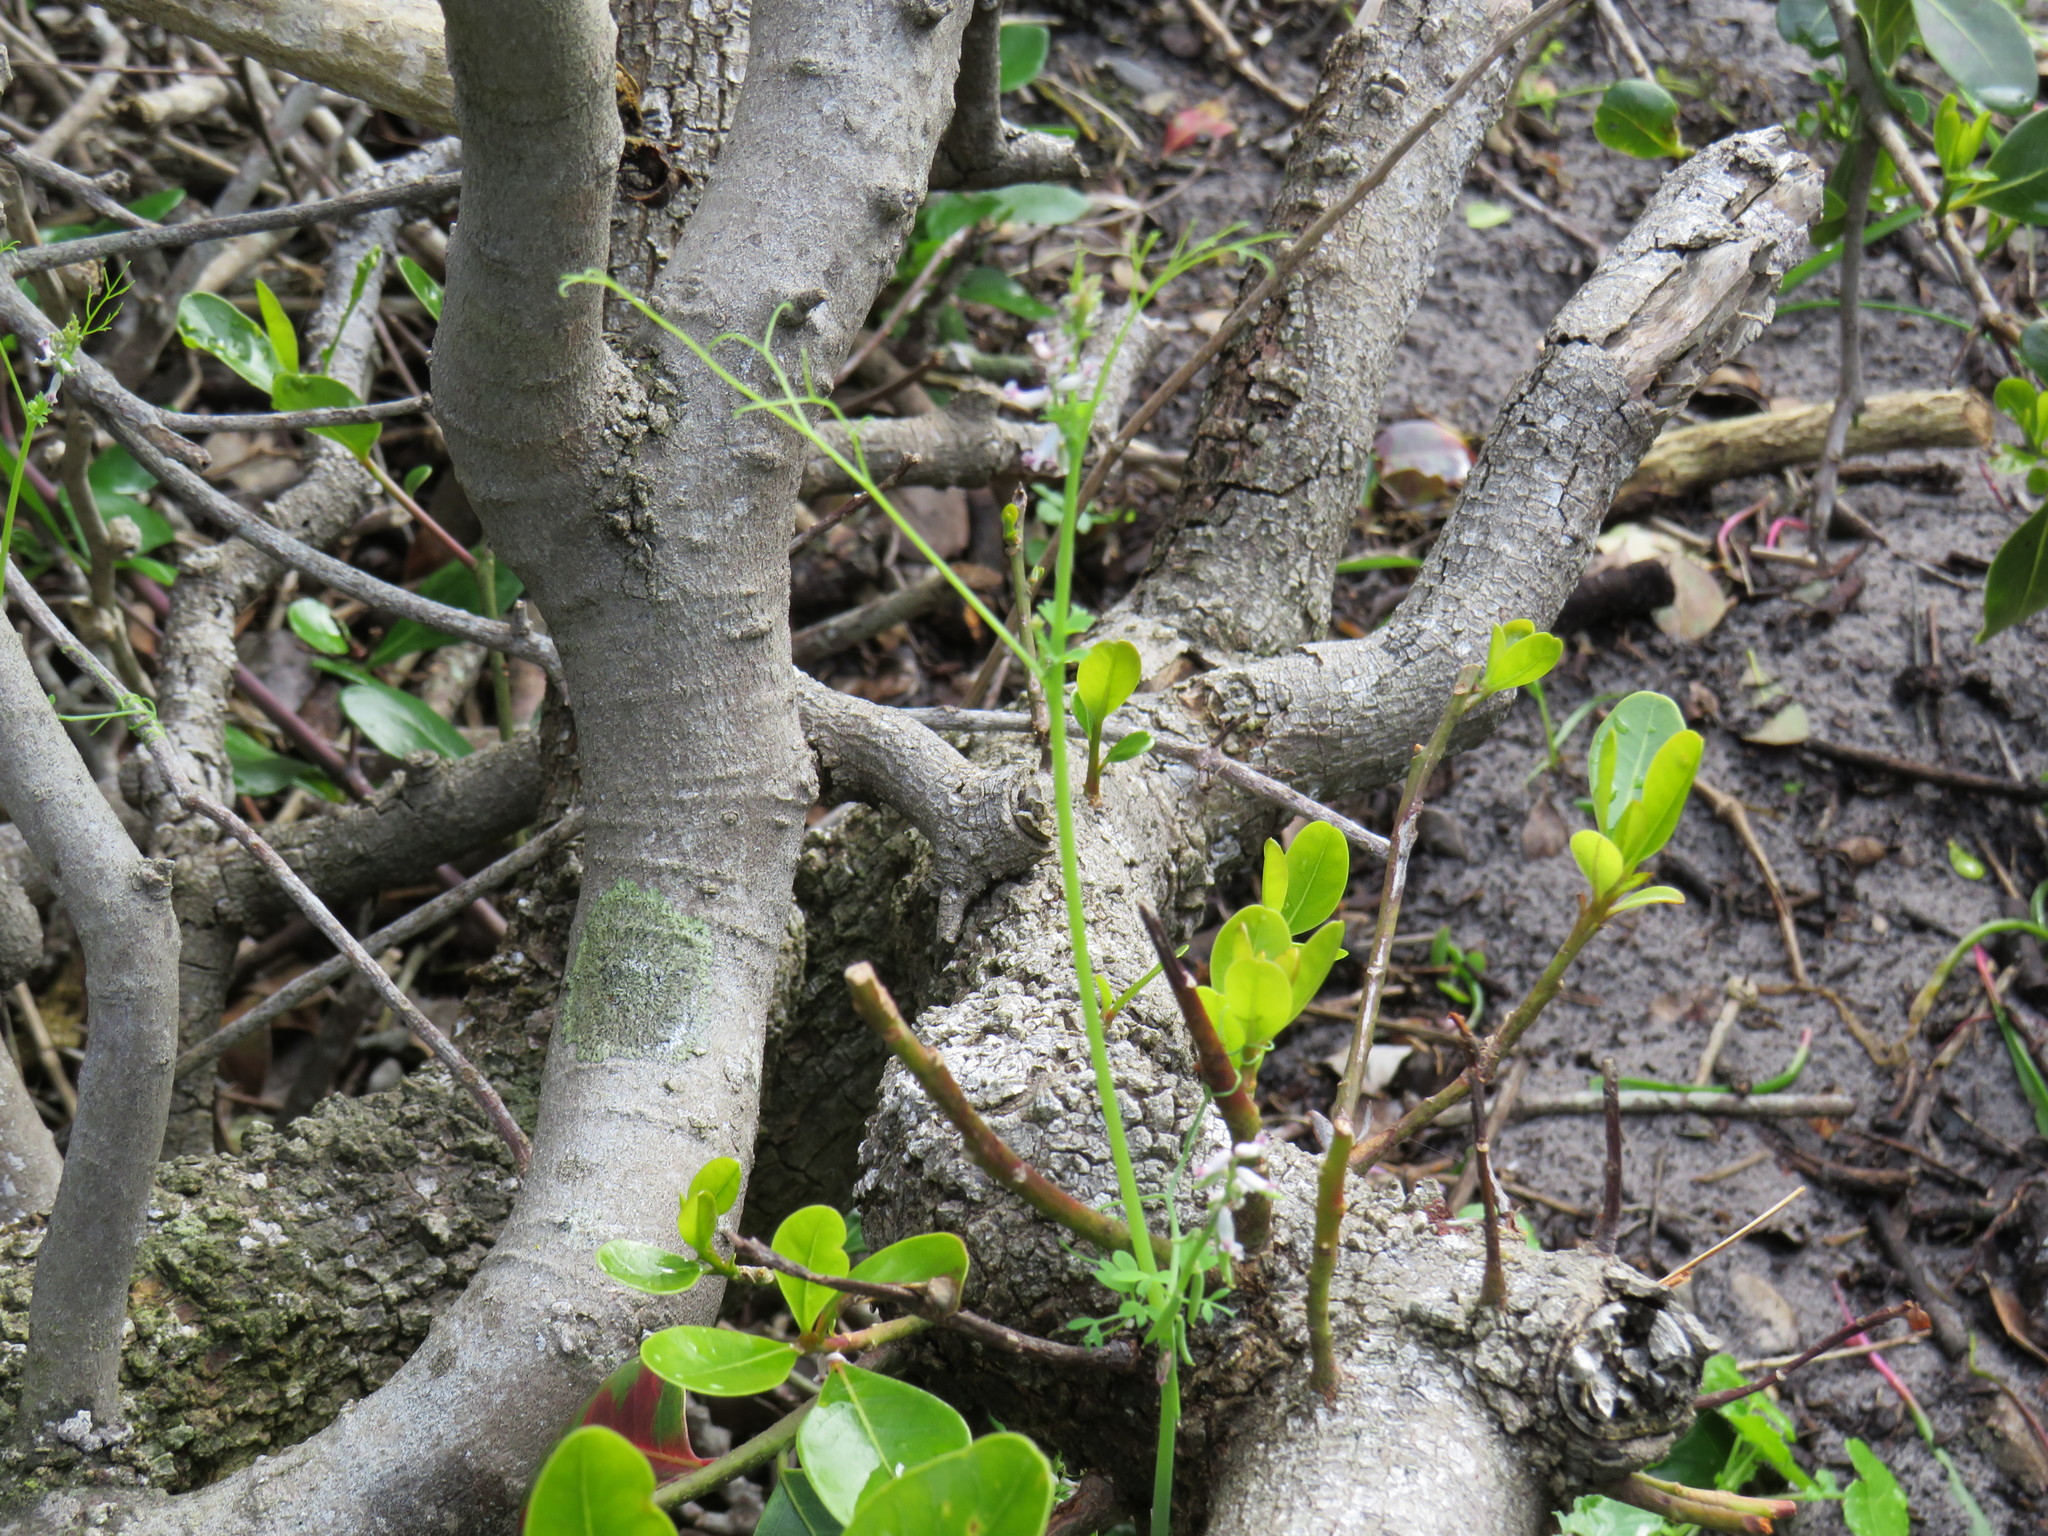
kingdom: Plantae
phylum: Tracheophyta
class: Magnoliopsida
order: Ranunculales
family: Papaveraceae
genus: Cysticapnos
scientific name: Cysticapnos cracca
